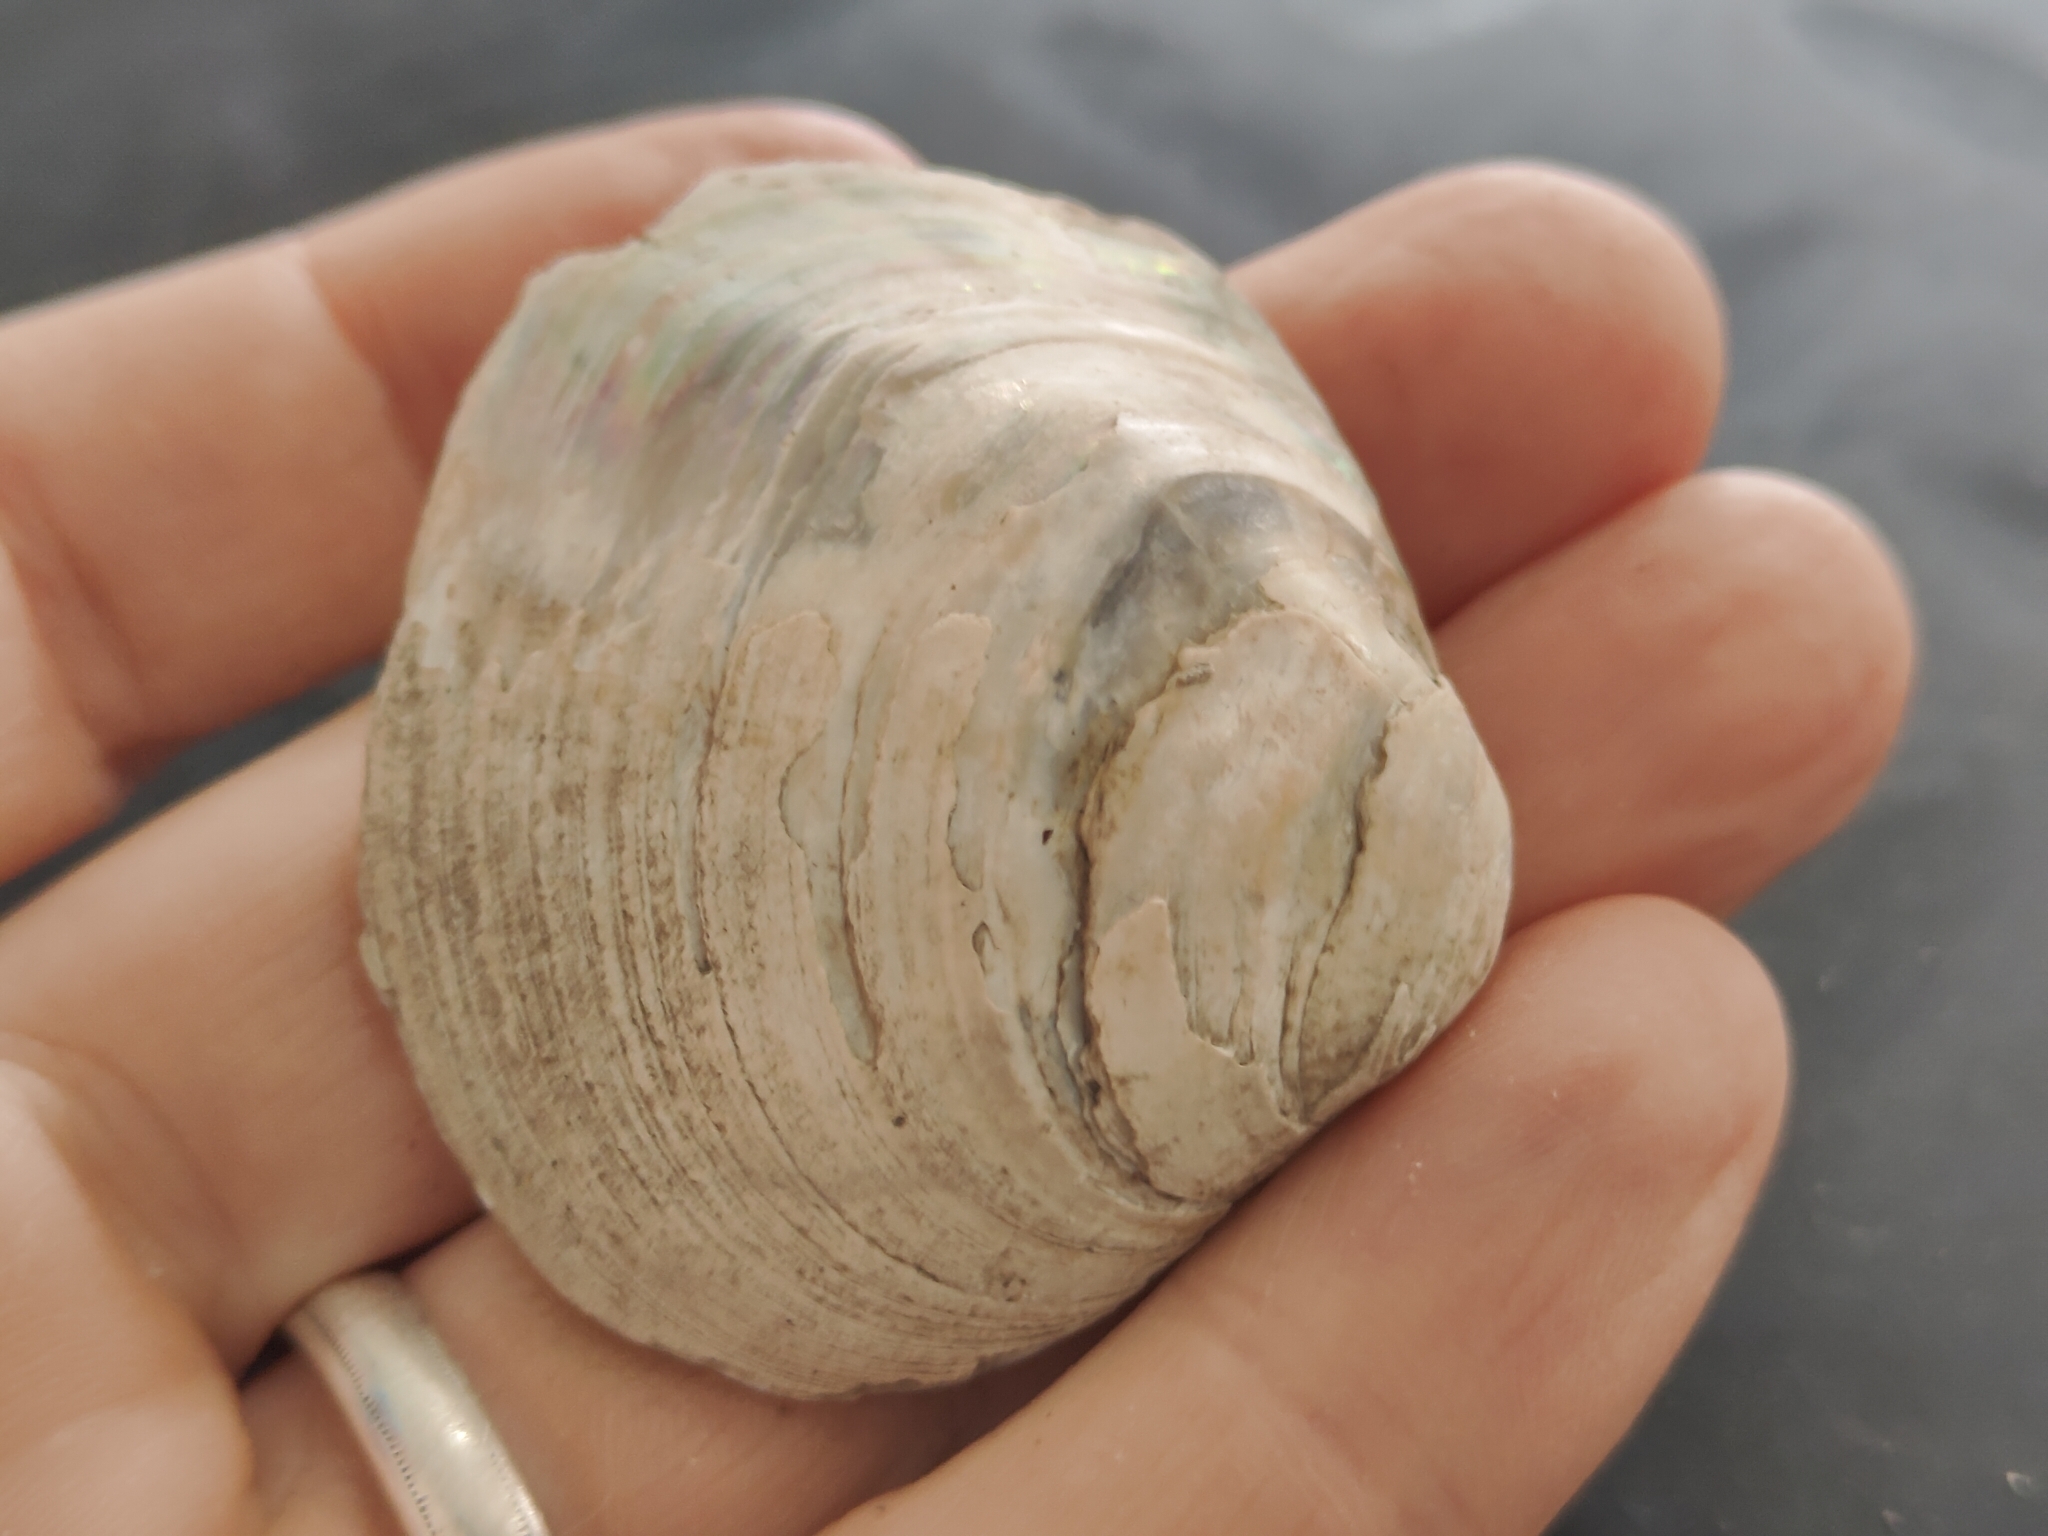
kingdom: Animalia
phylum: Mollusca
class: Bivalvia
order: Unionida
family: Unionidae
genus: Cyclonaias
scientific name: Cyclonaias pustulosa
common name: Pimpleback
